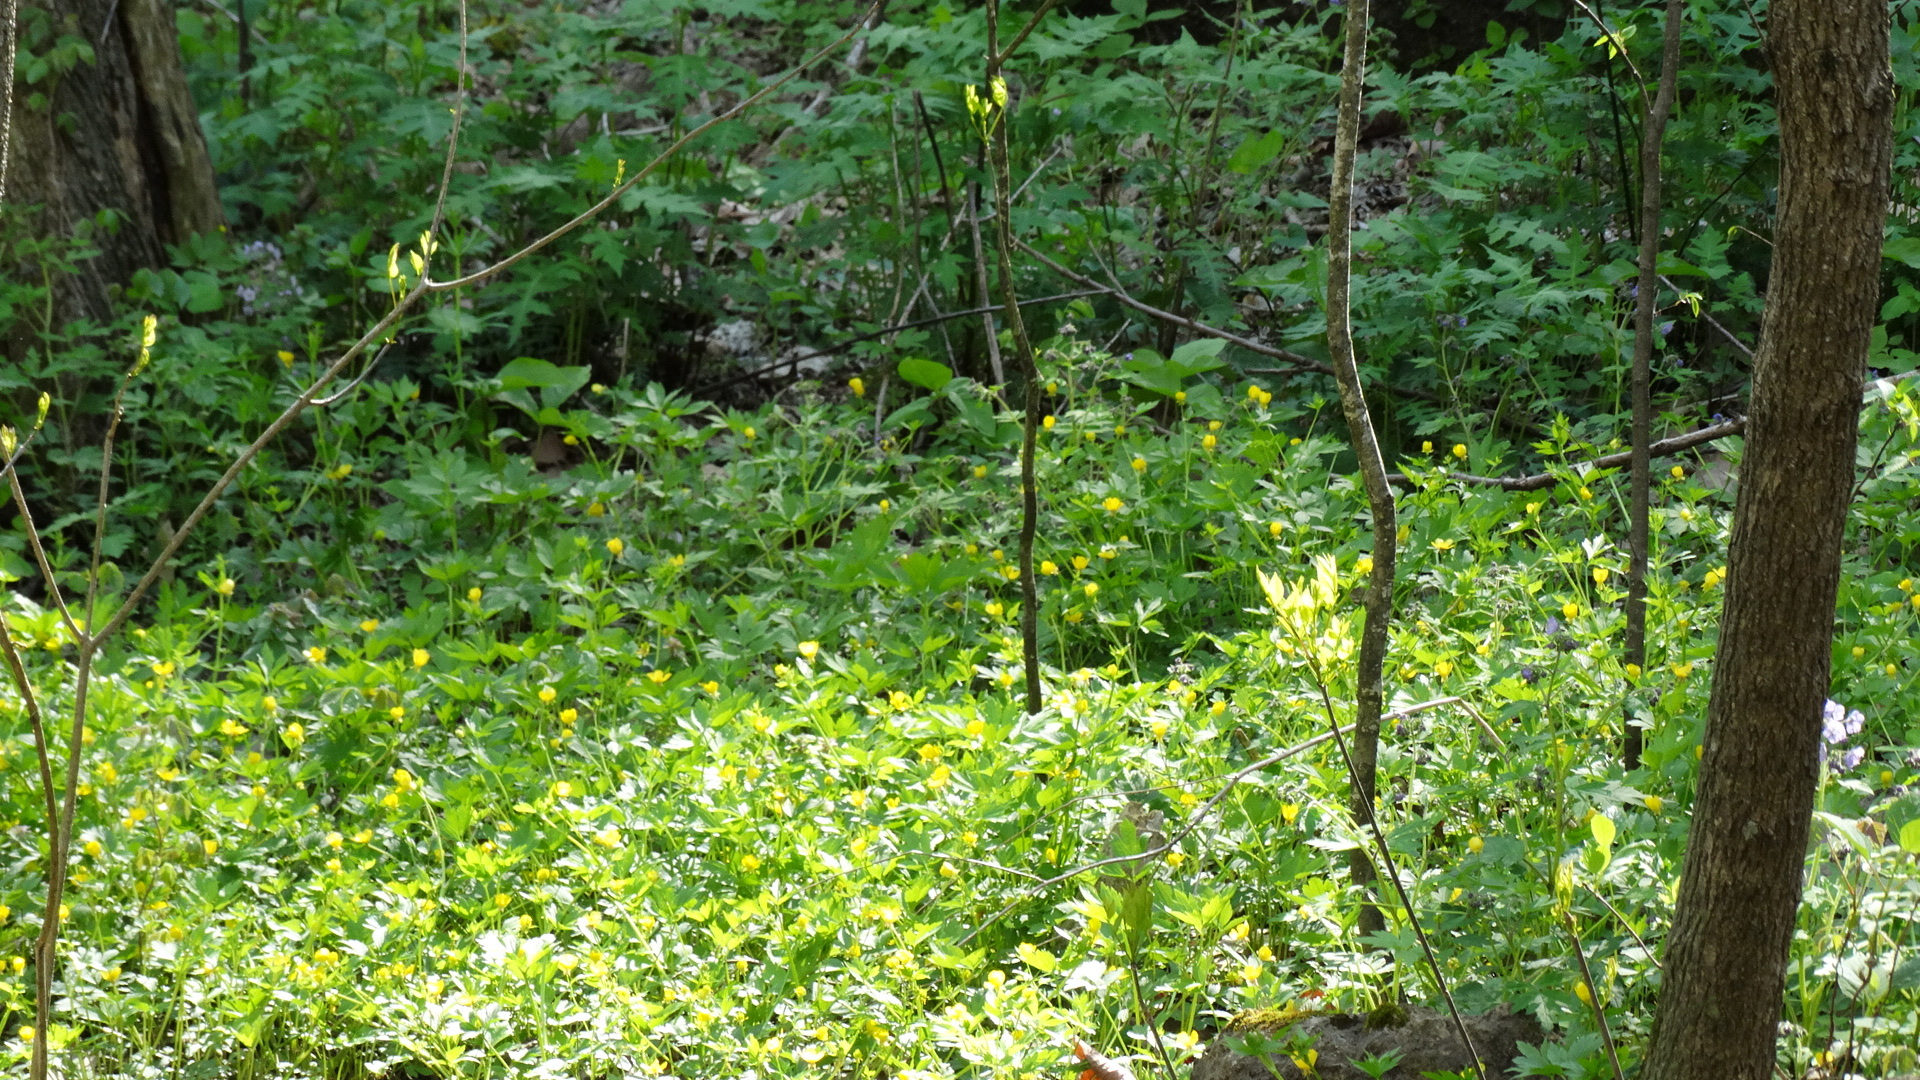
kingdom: Plantae
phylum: Tracheophyta
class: Magnoliopsida
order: Ranunculales
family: Papaveraceae
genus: Stylophorum
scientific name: Stylophorum diphyllum
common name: Celandine poppy
